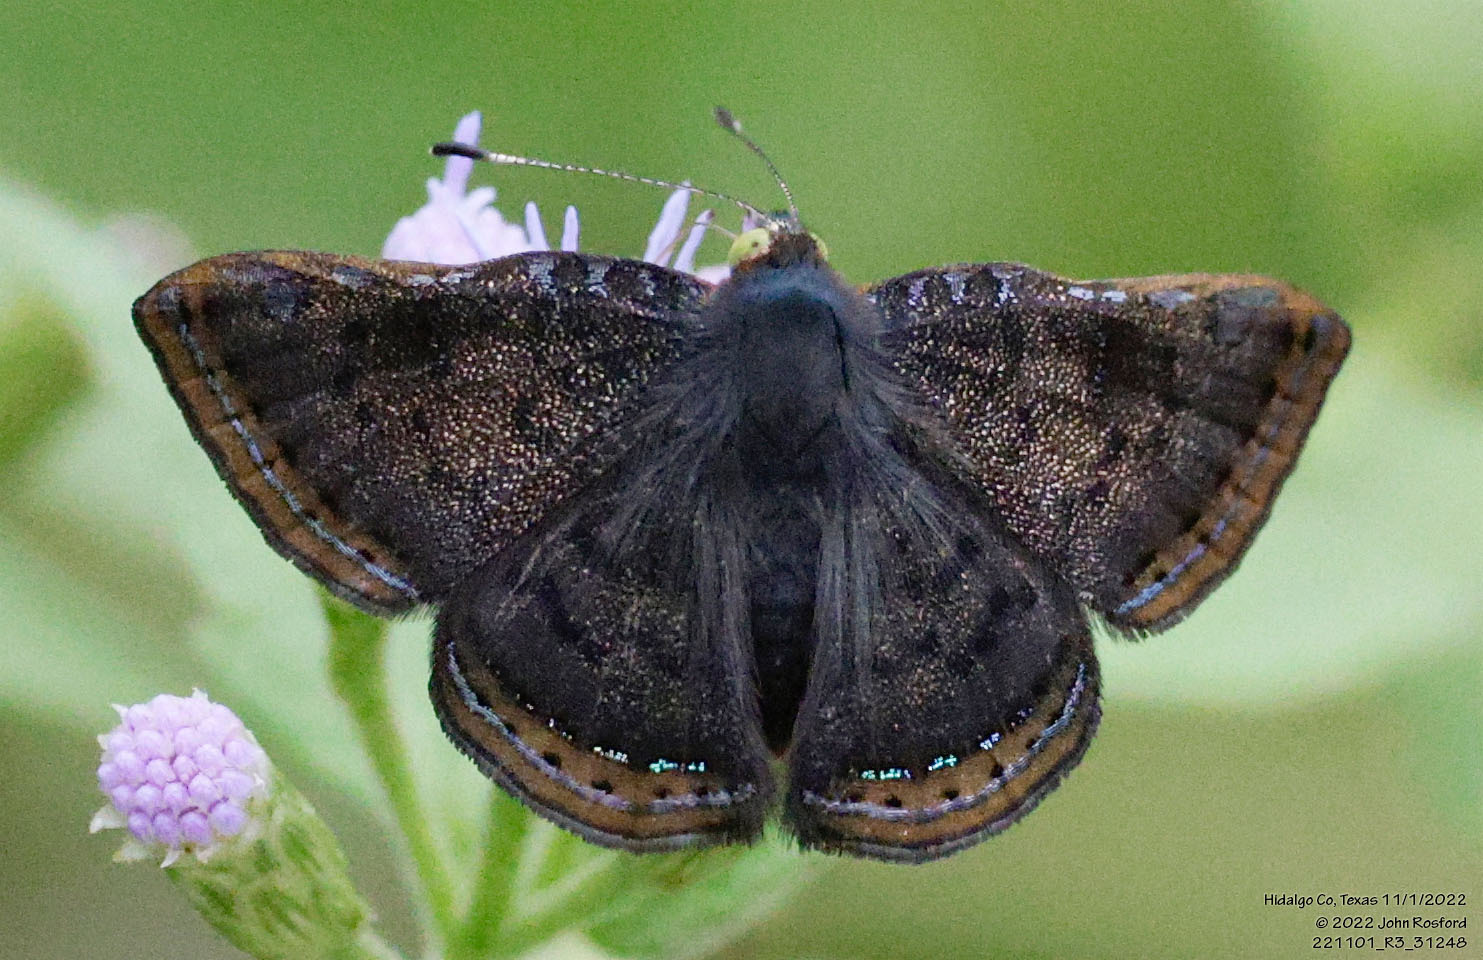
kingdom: Animalia
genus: Caria
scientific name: Caria ino
